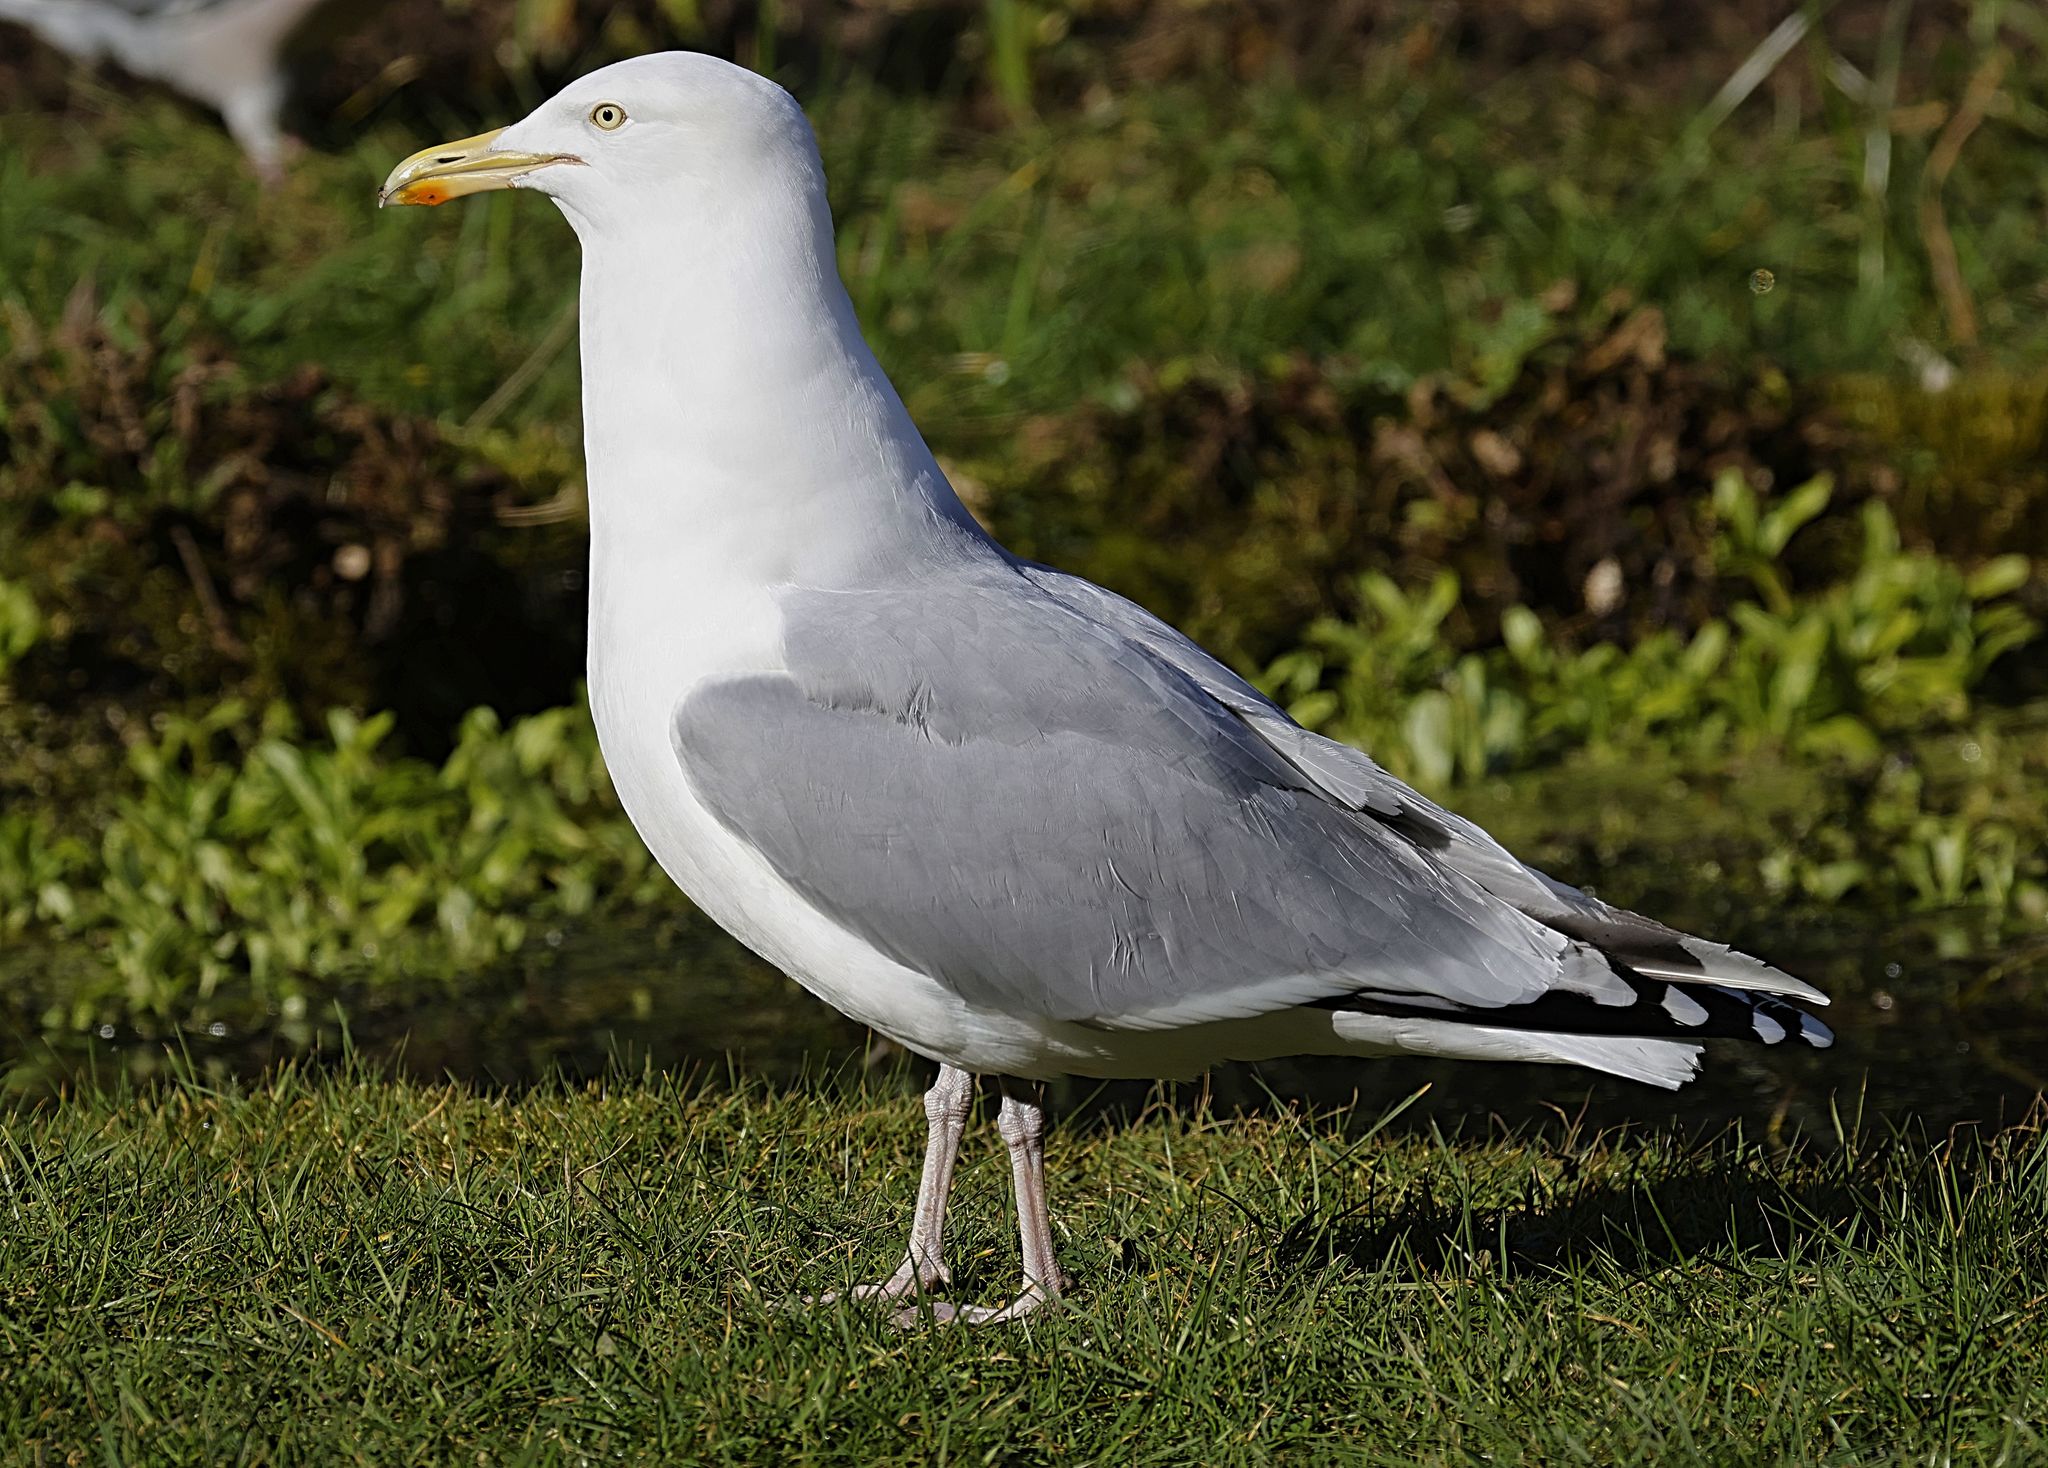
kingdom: Animalia
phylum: Chordata
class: Aves
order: Charadriiformes
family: Laridae
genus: Larus
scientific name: Larus argentatus
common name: Herring gull
